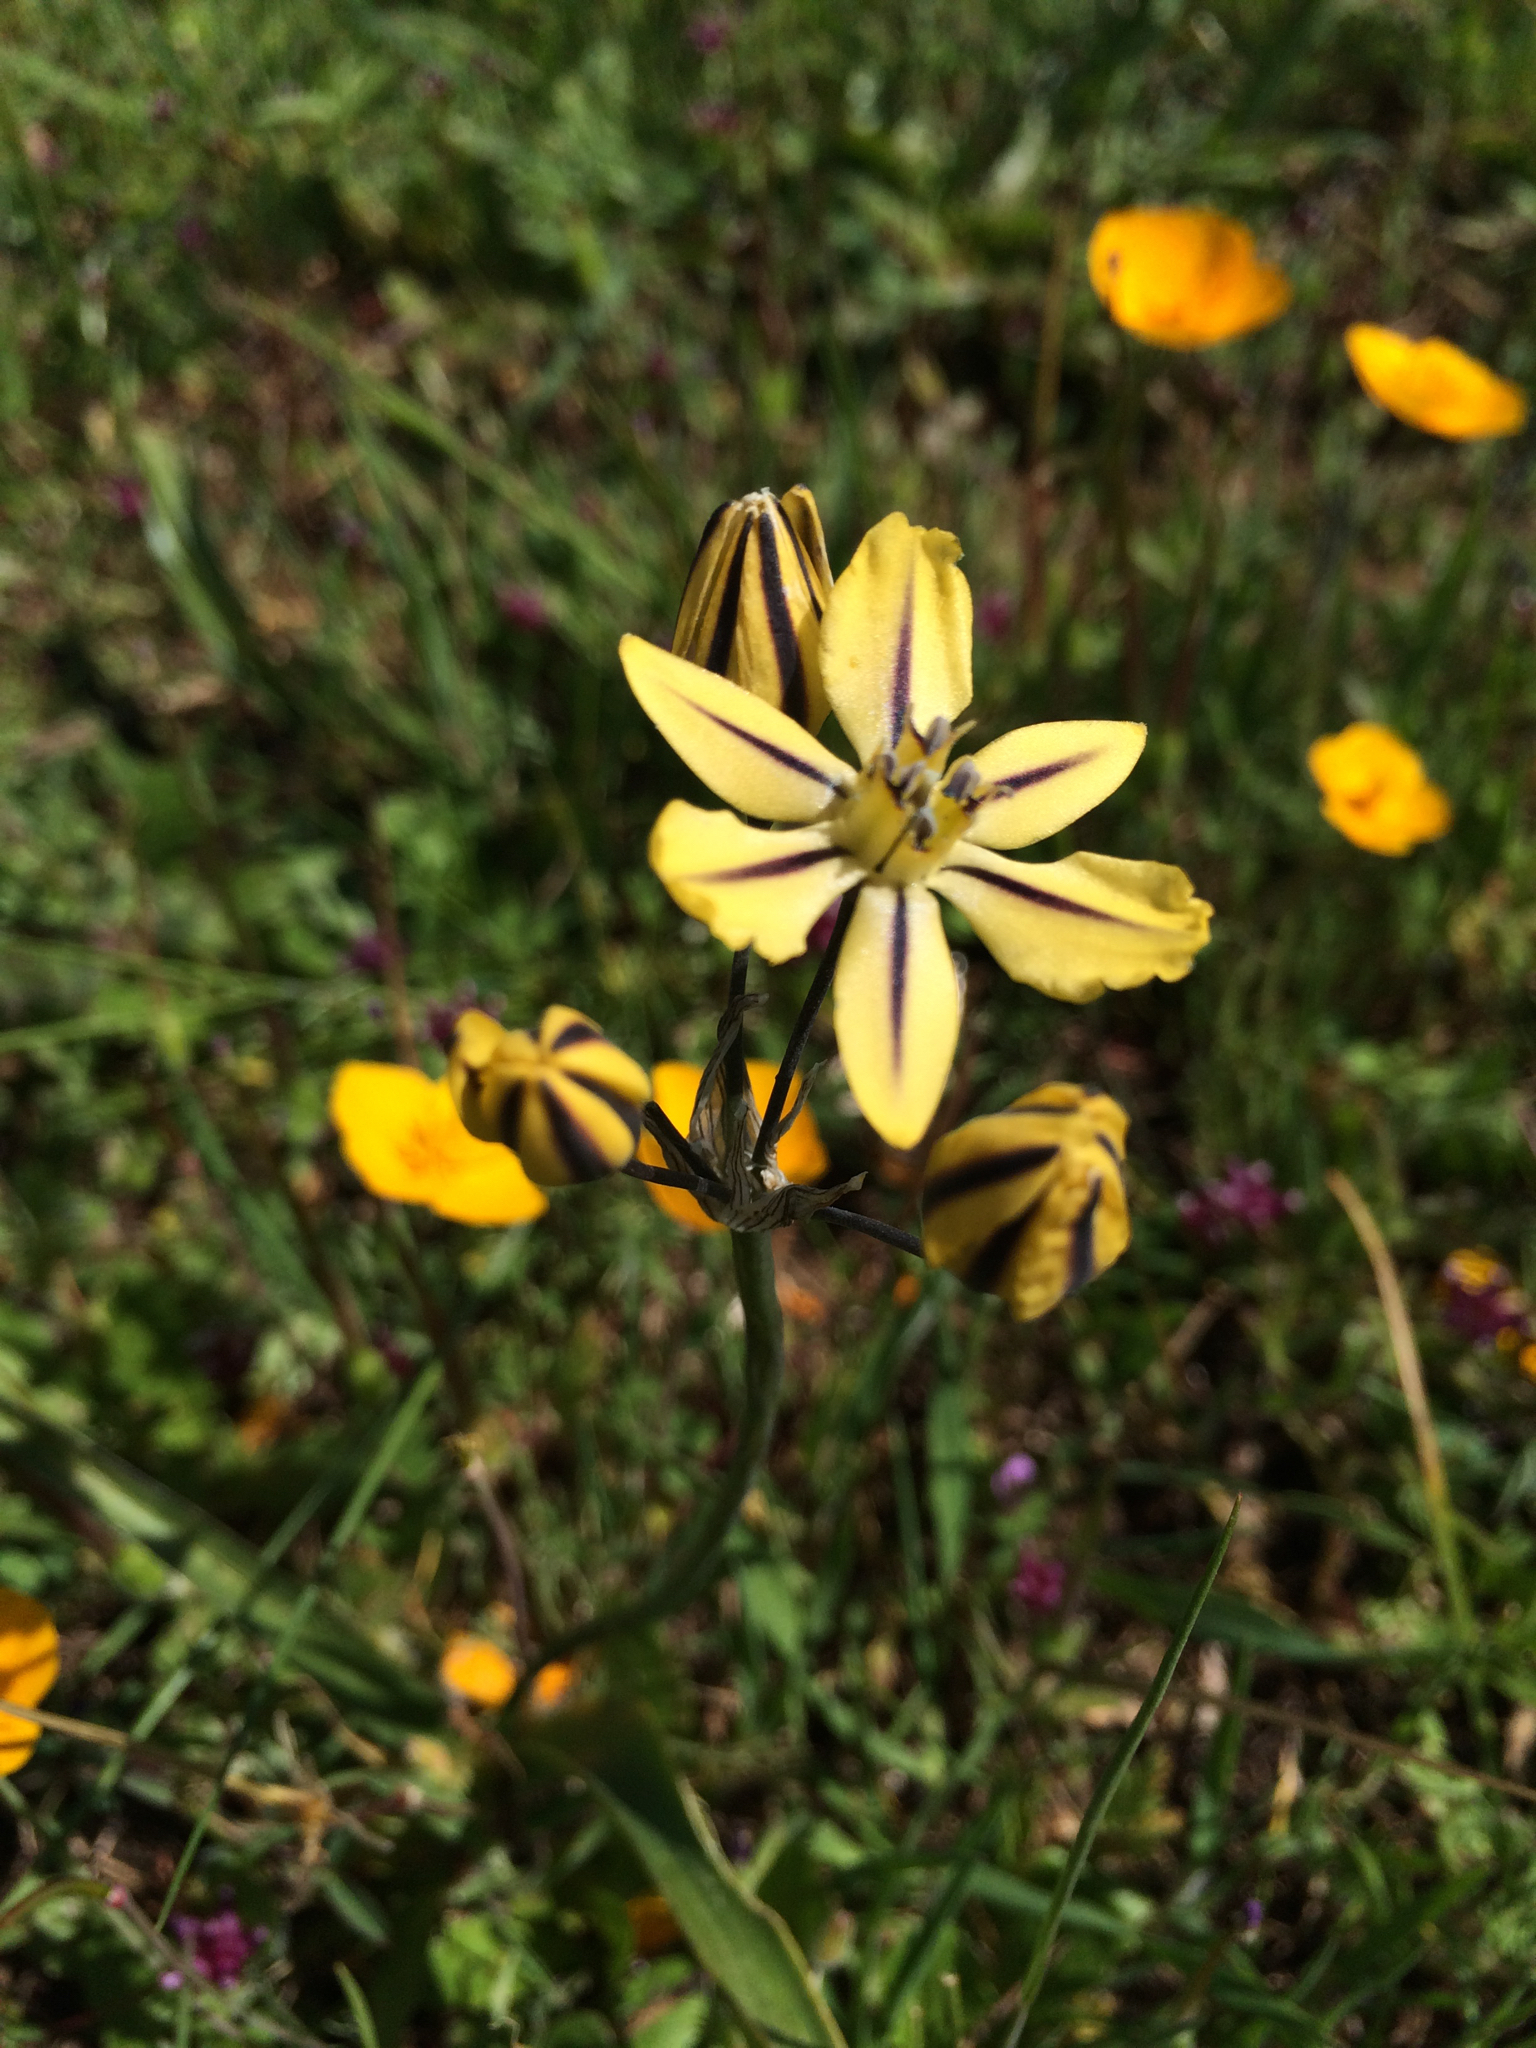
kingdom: Plantae
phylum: Tracheophyta
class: Liliopsida
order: Asparagales
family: Asparagaceae
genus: Triteleia
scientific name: Triteleia ixioides
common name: Yellow-brodiaea
